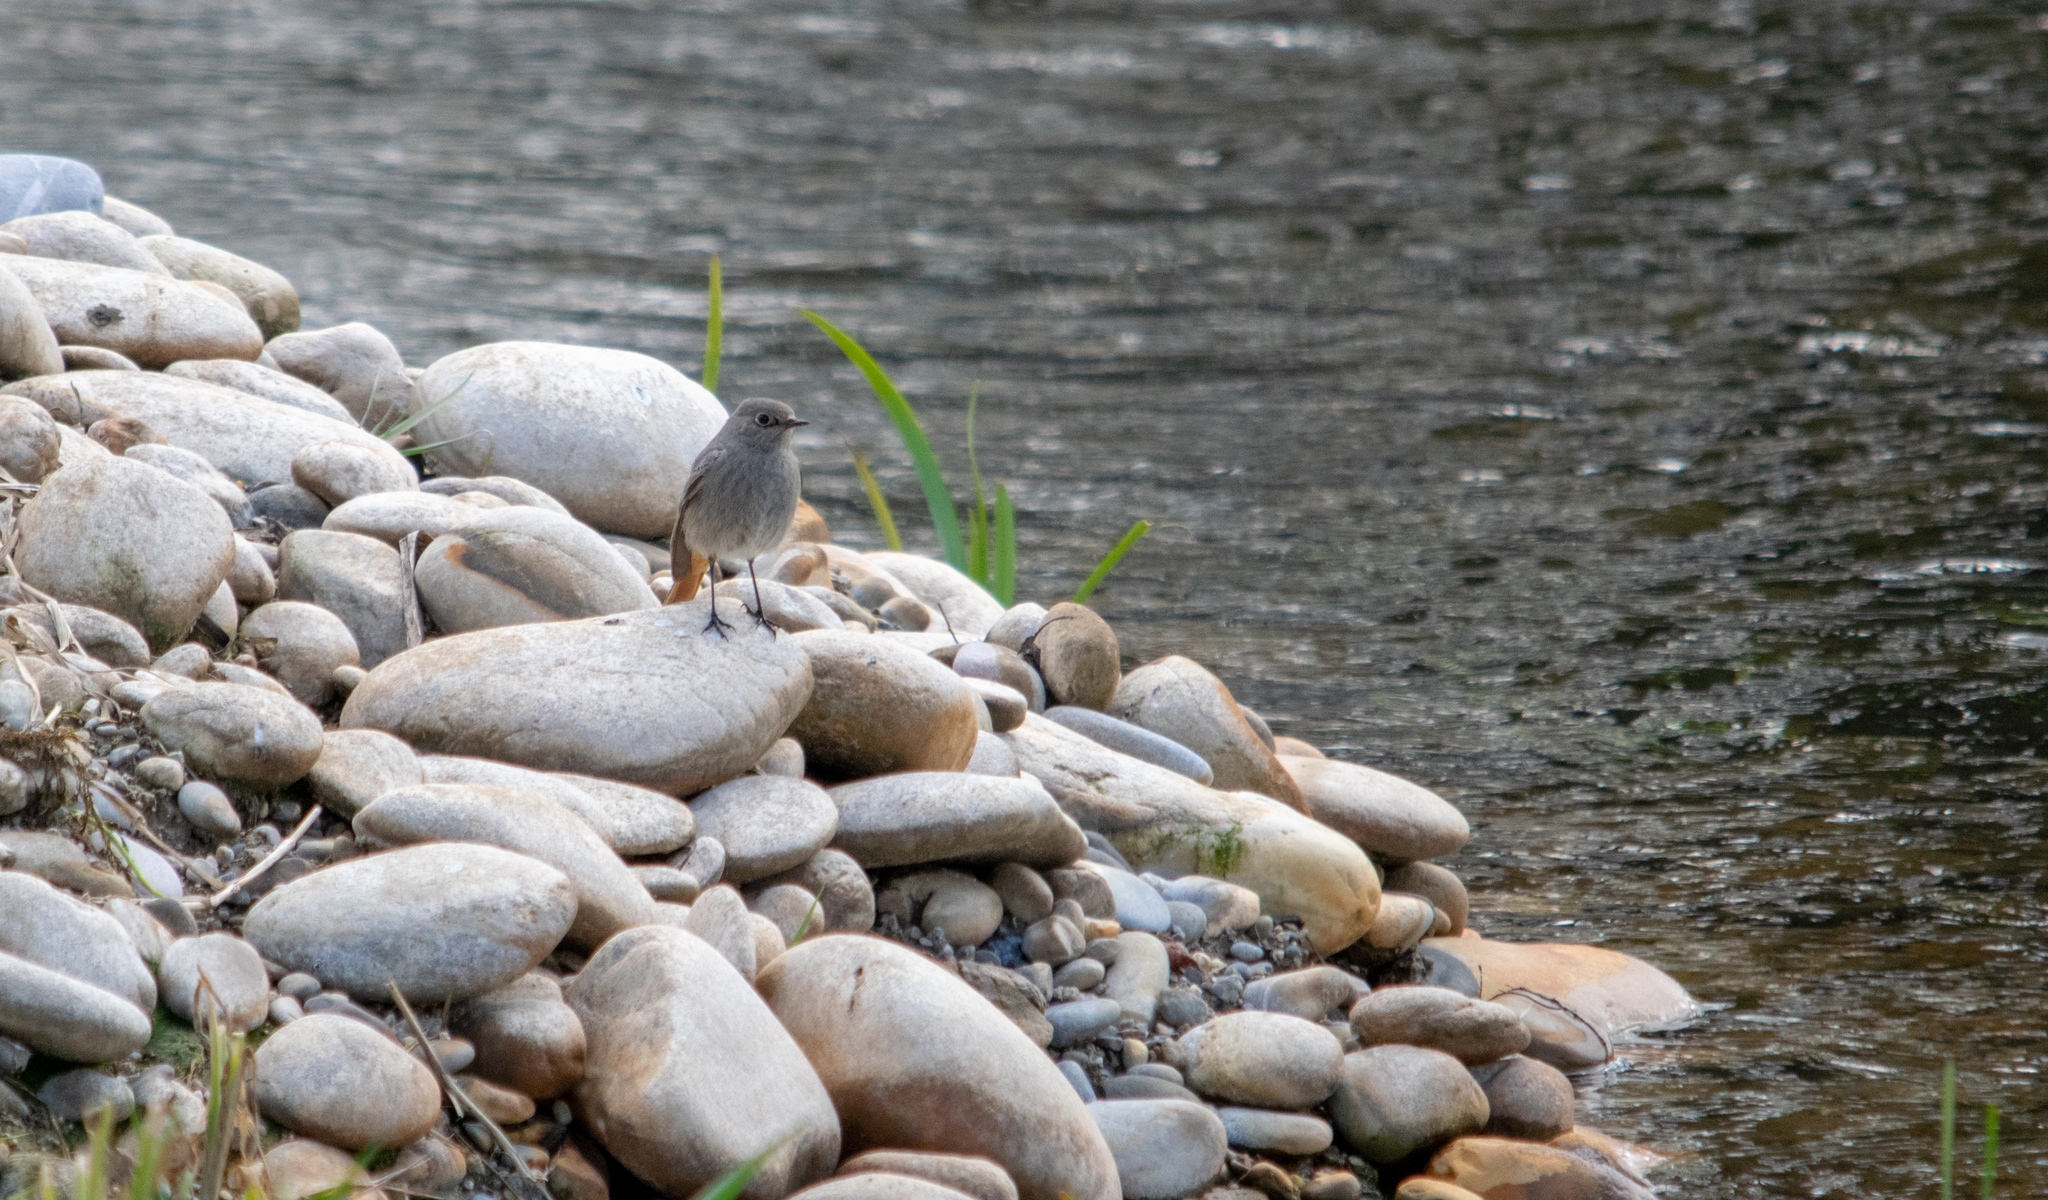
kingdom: Animalia
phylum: Chordata
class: Aves
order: Passeriformes
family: Muscicapidae
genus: Phoenicurus
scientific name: Phoenicurus ochruros
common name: Black redstart
